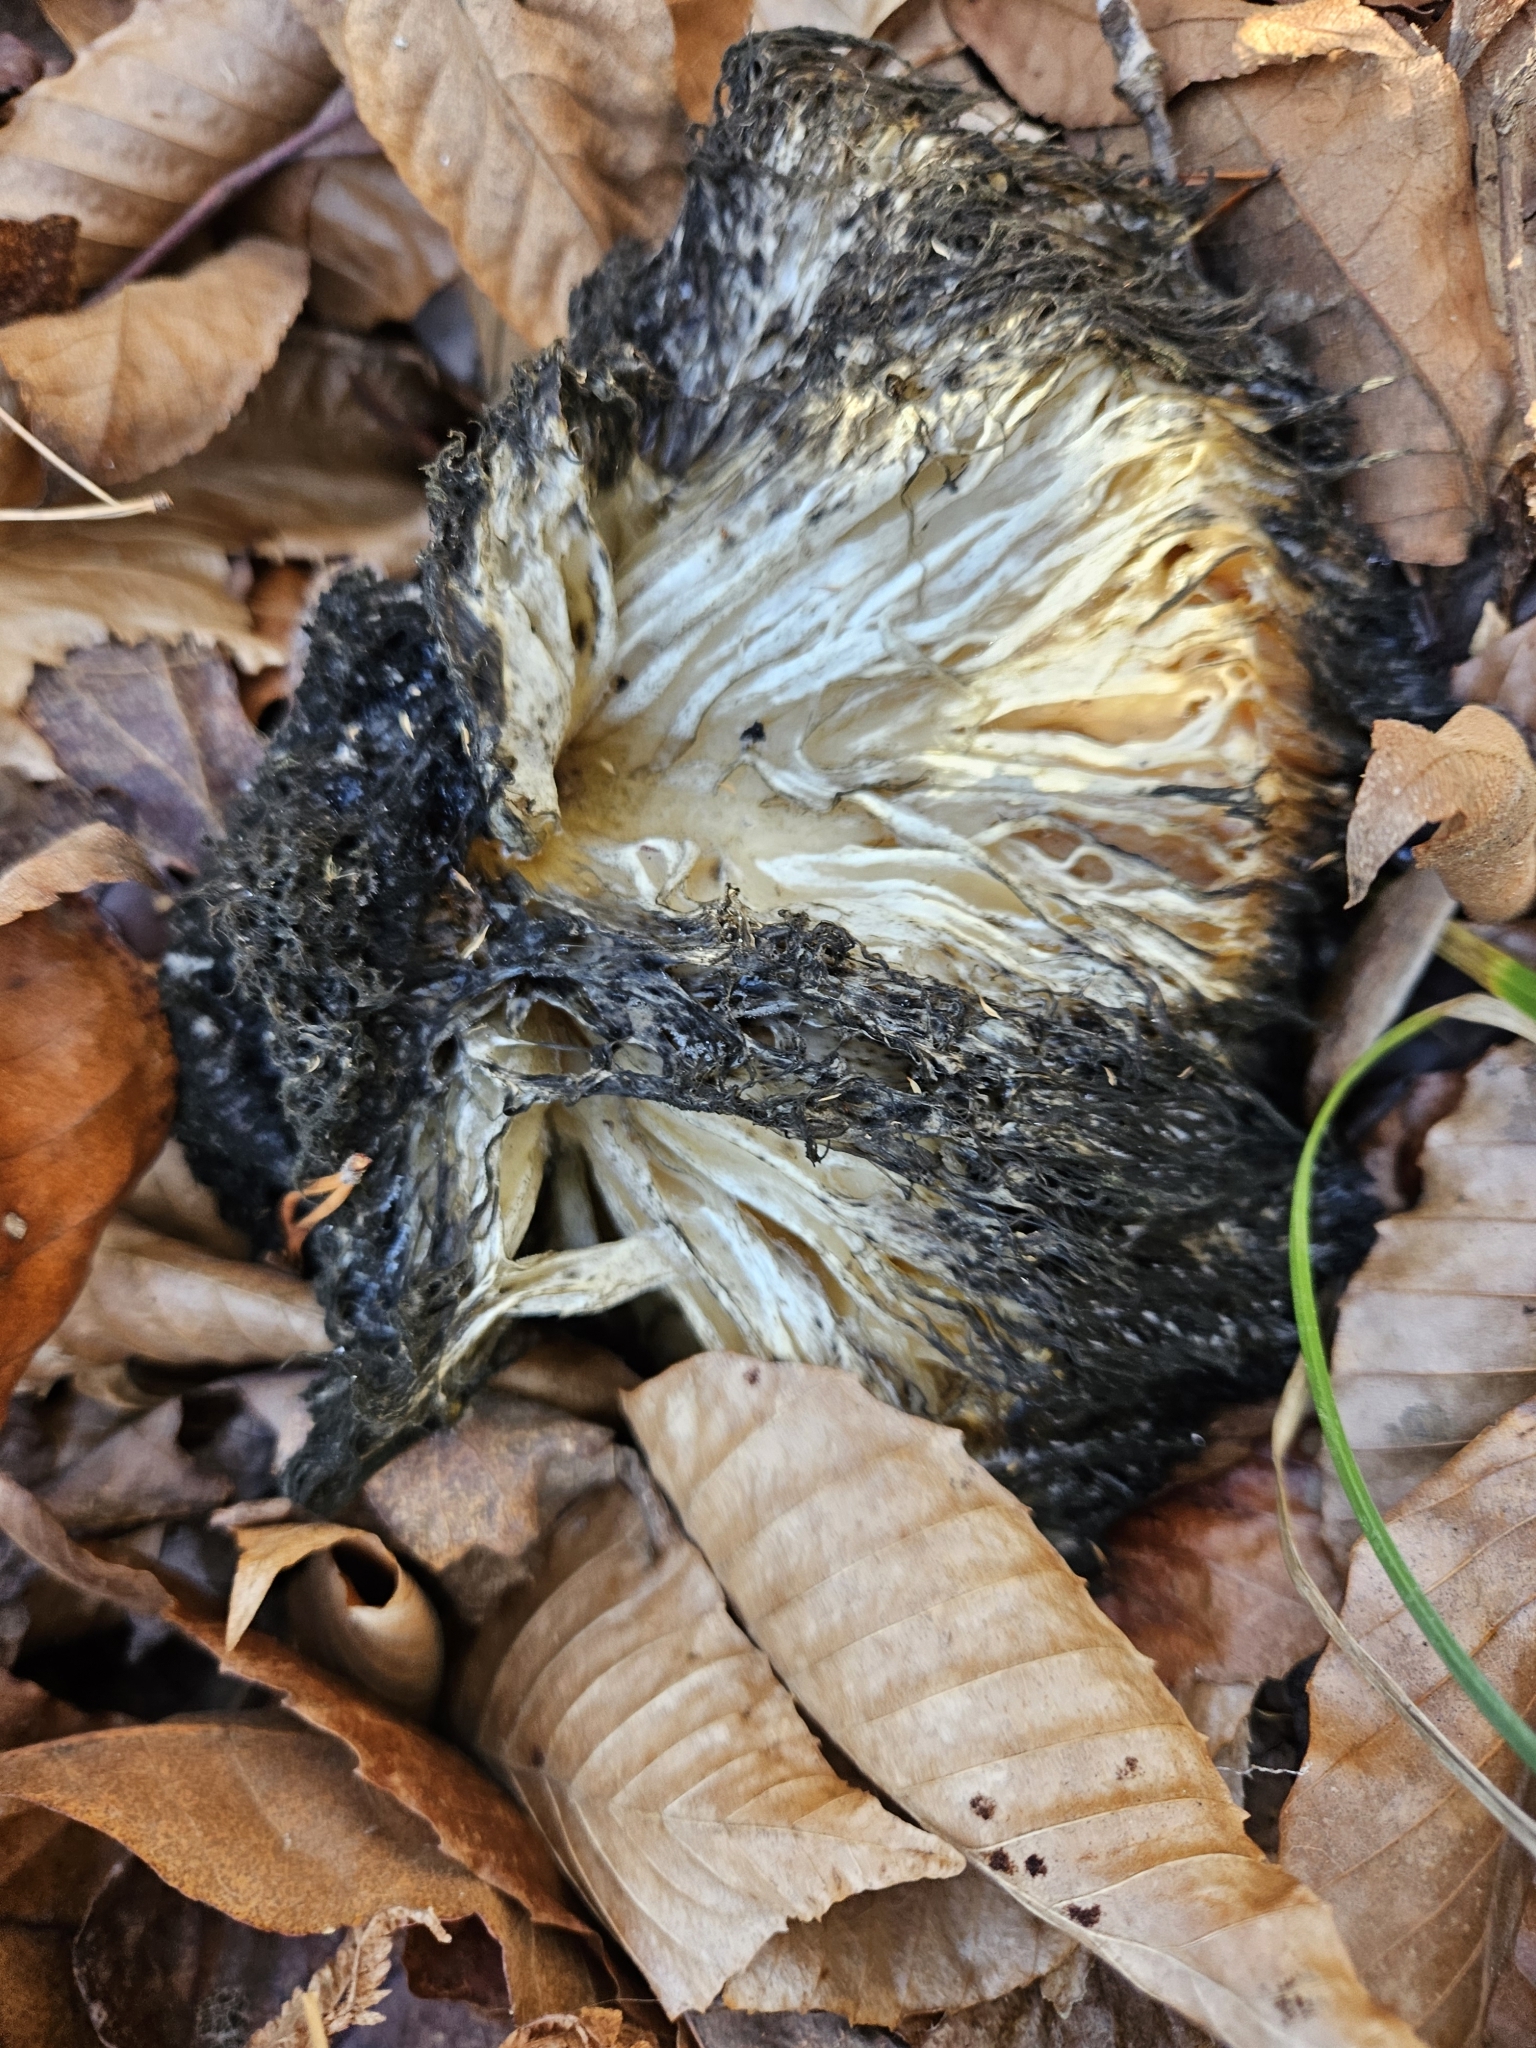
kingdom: Fungi
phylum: Basidiomycota
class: Agaricomycetes
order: Russulales
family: Hericiaceae
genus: Hericium
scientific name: Hericium erinaceus
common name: Bearded tooth
